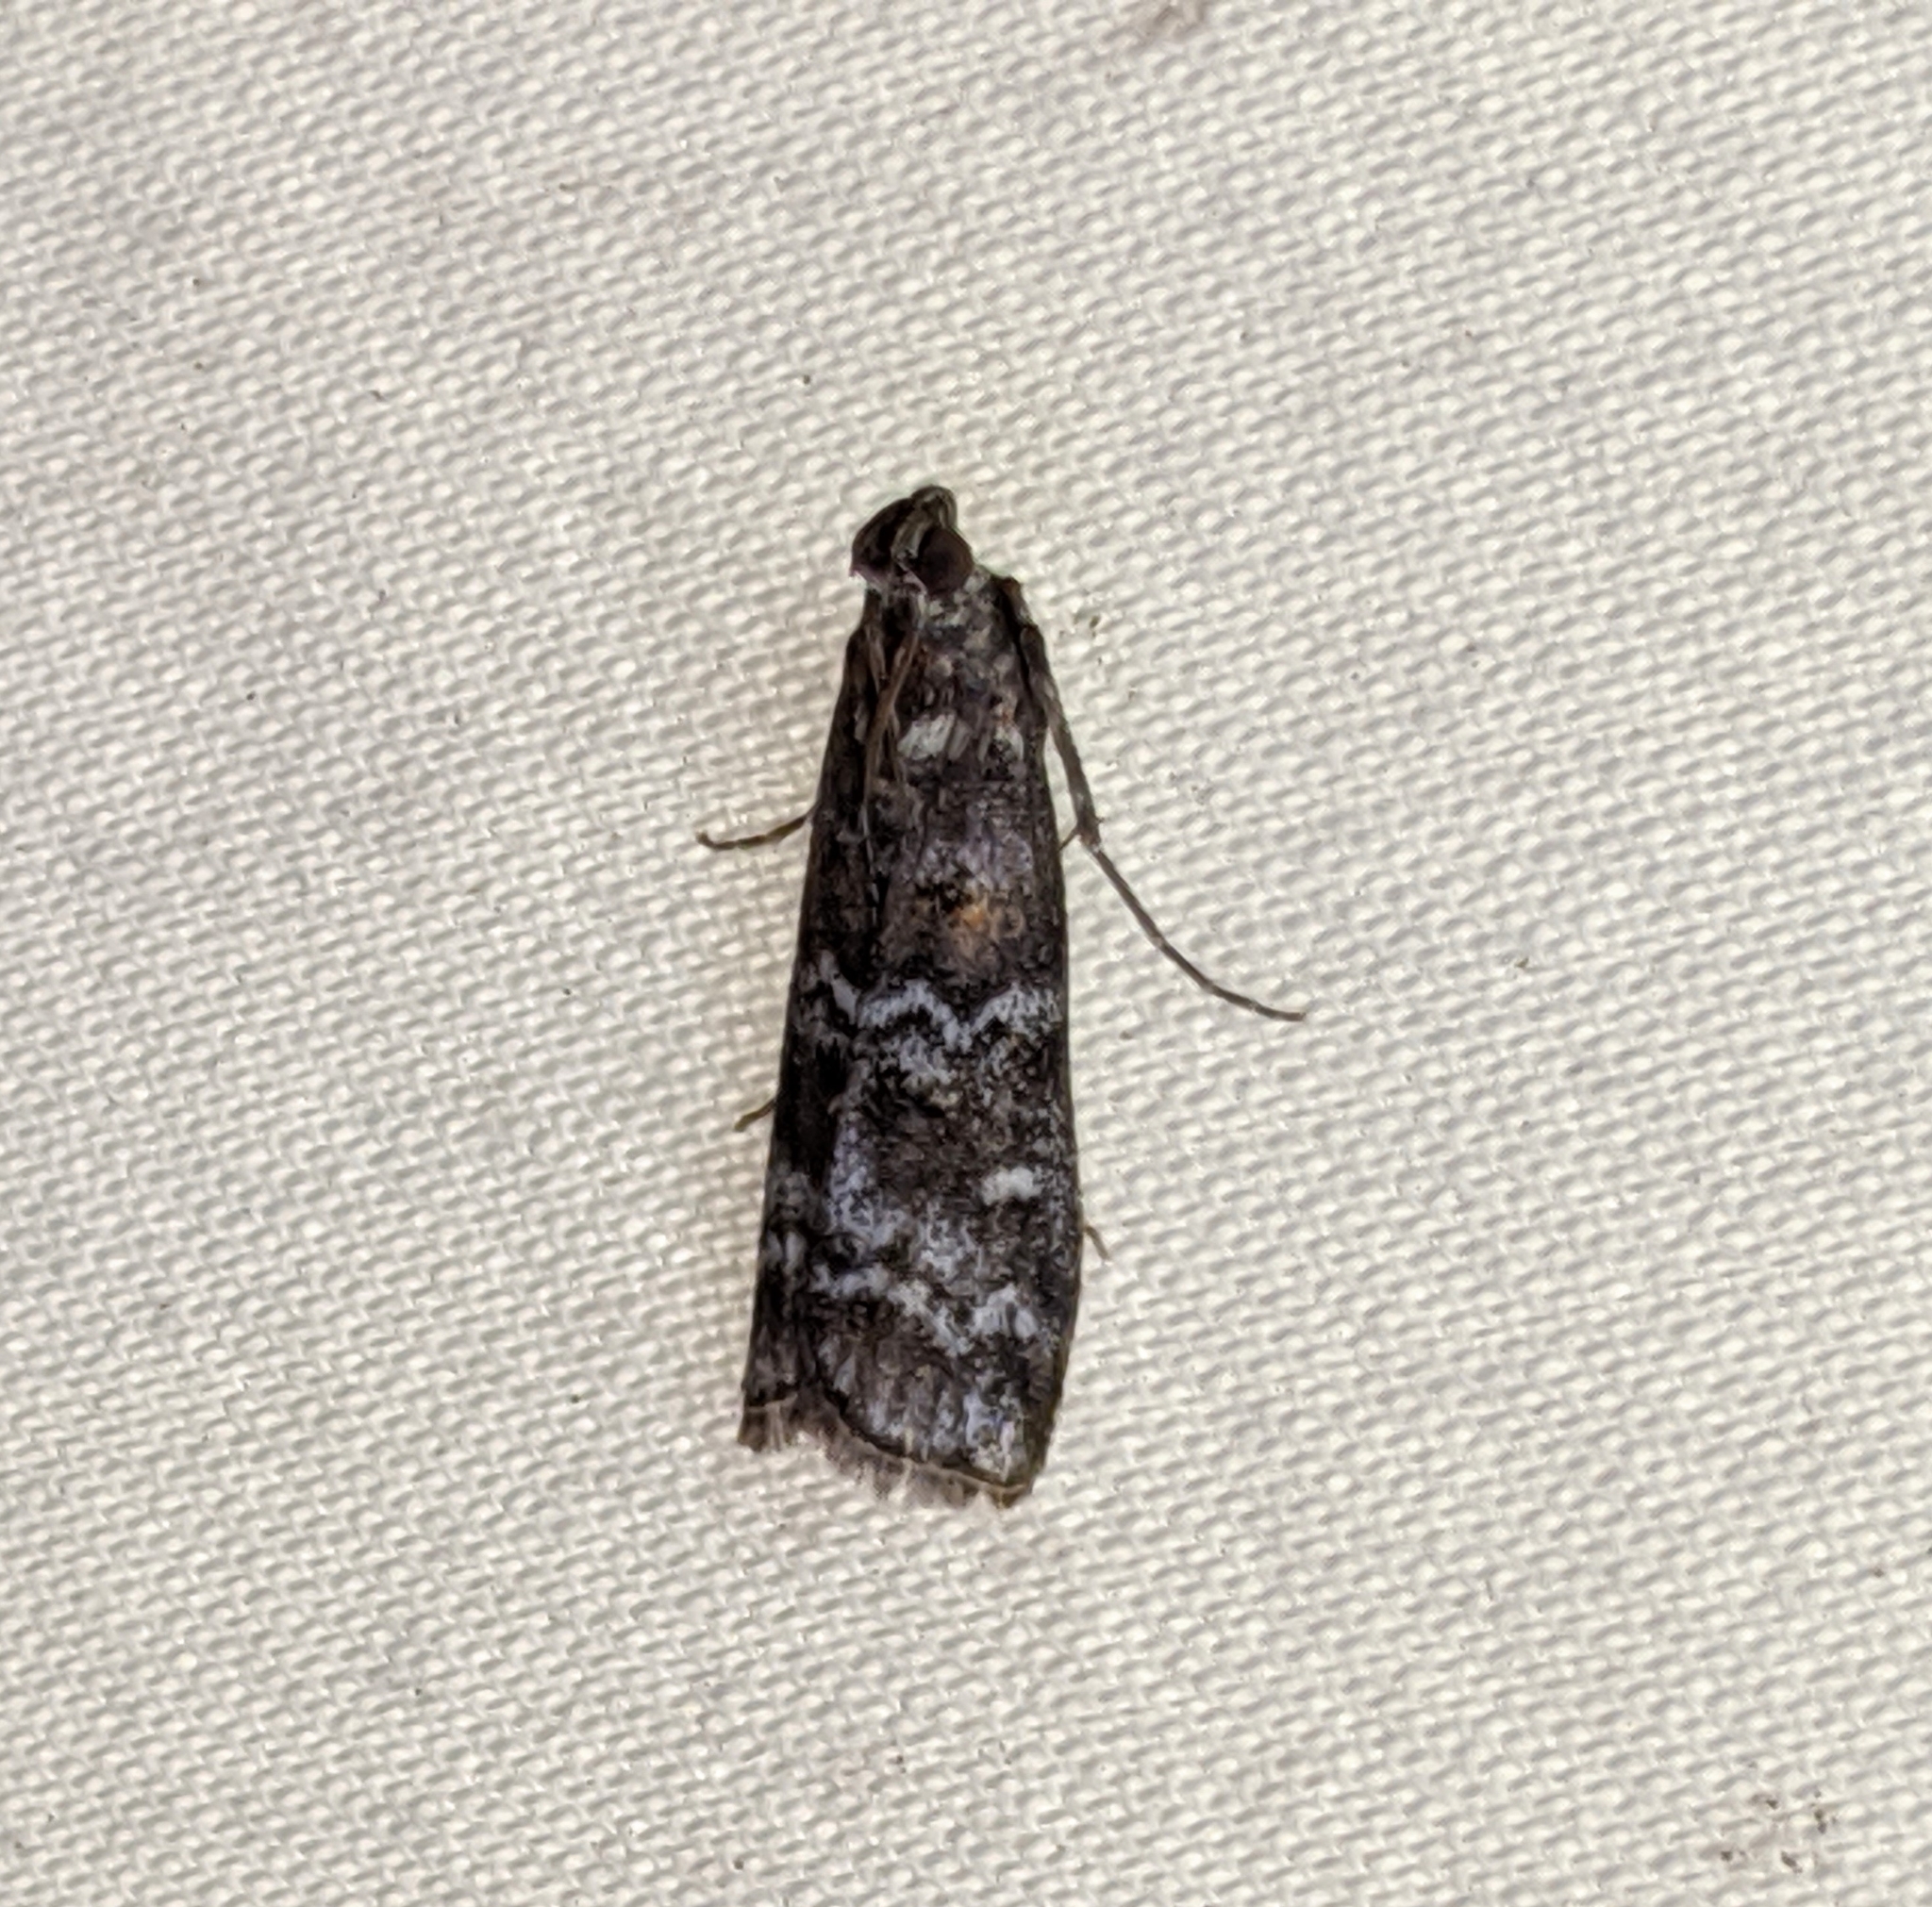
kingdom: Animalia
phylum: Arthropoda
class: Insecta
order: Lepidoptera
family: Pyralidae
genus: Dioryctria
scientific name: Dioryctria banksiella
